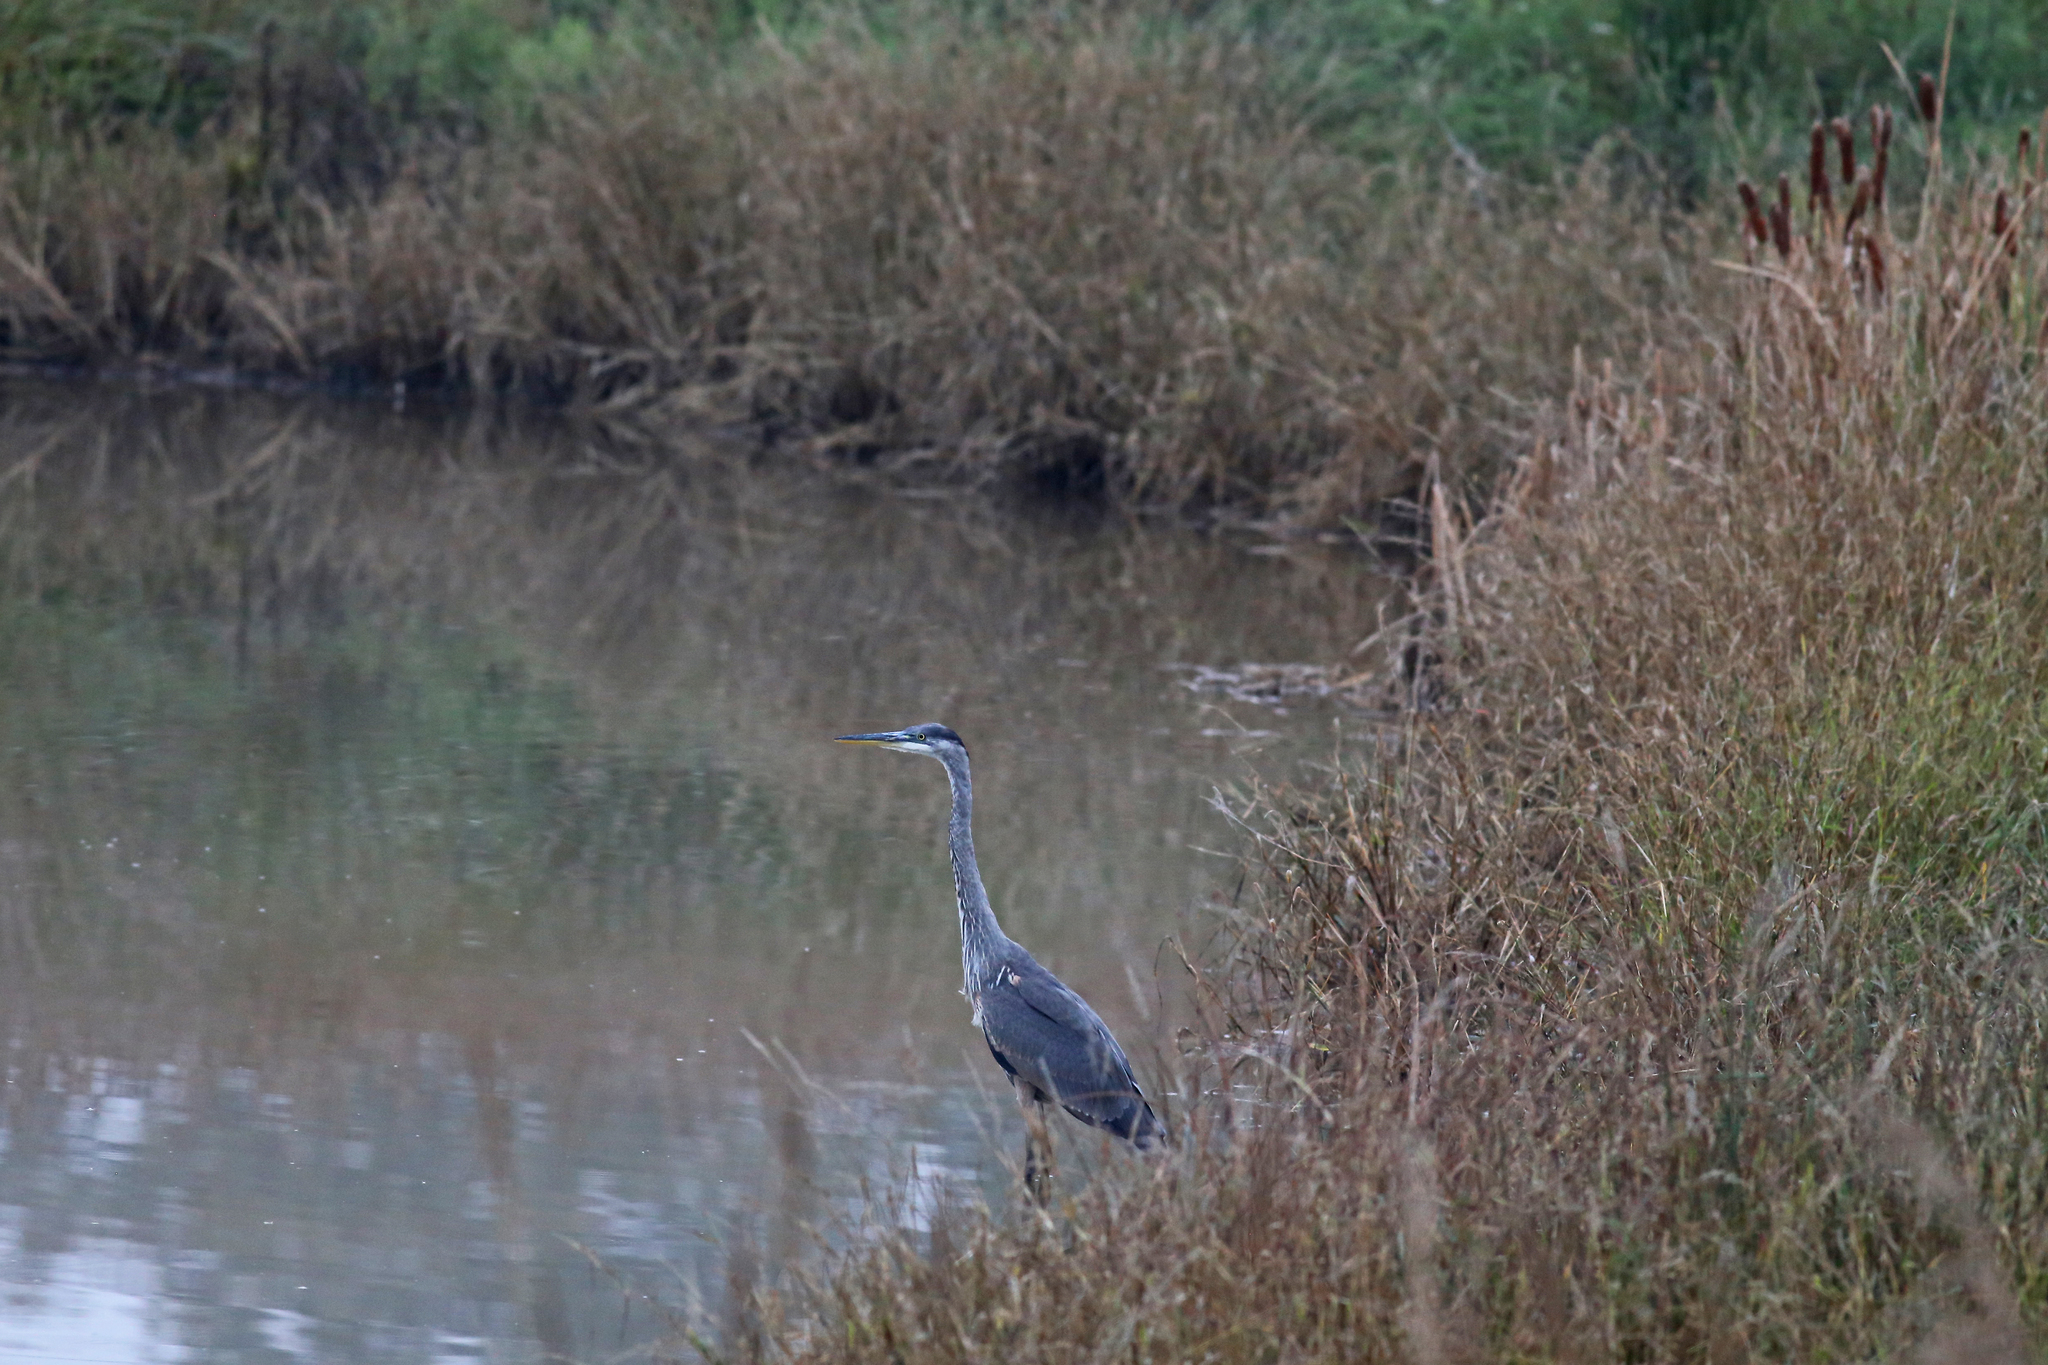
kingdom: Animalia
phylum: Chordata
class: Aves
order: Pelecaniformes
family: Ardeidae
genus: Ardea
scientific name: Ardea herodias
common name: Great blue heron
